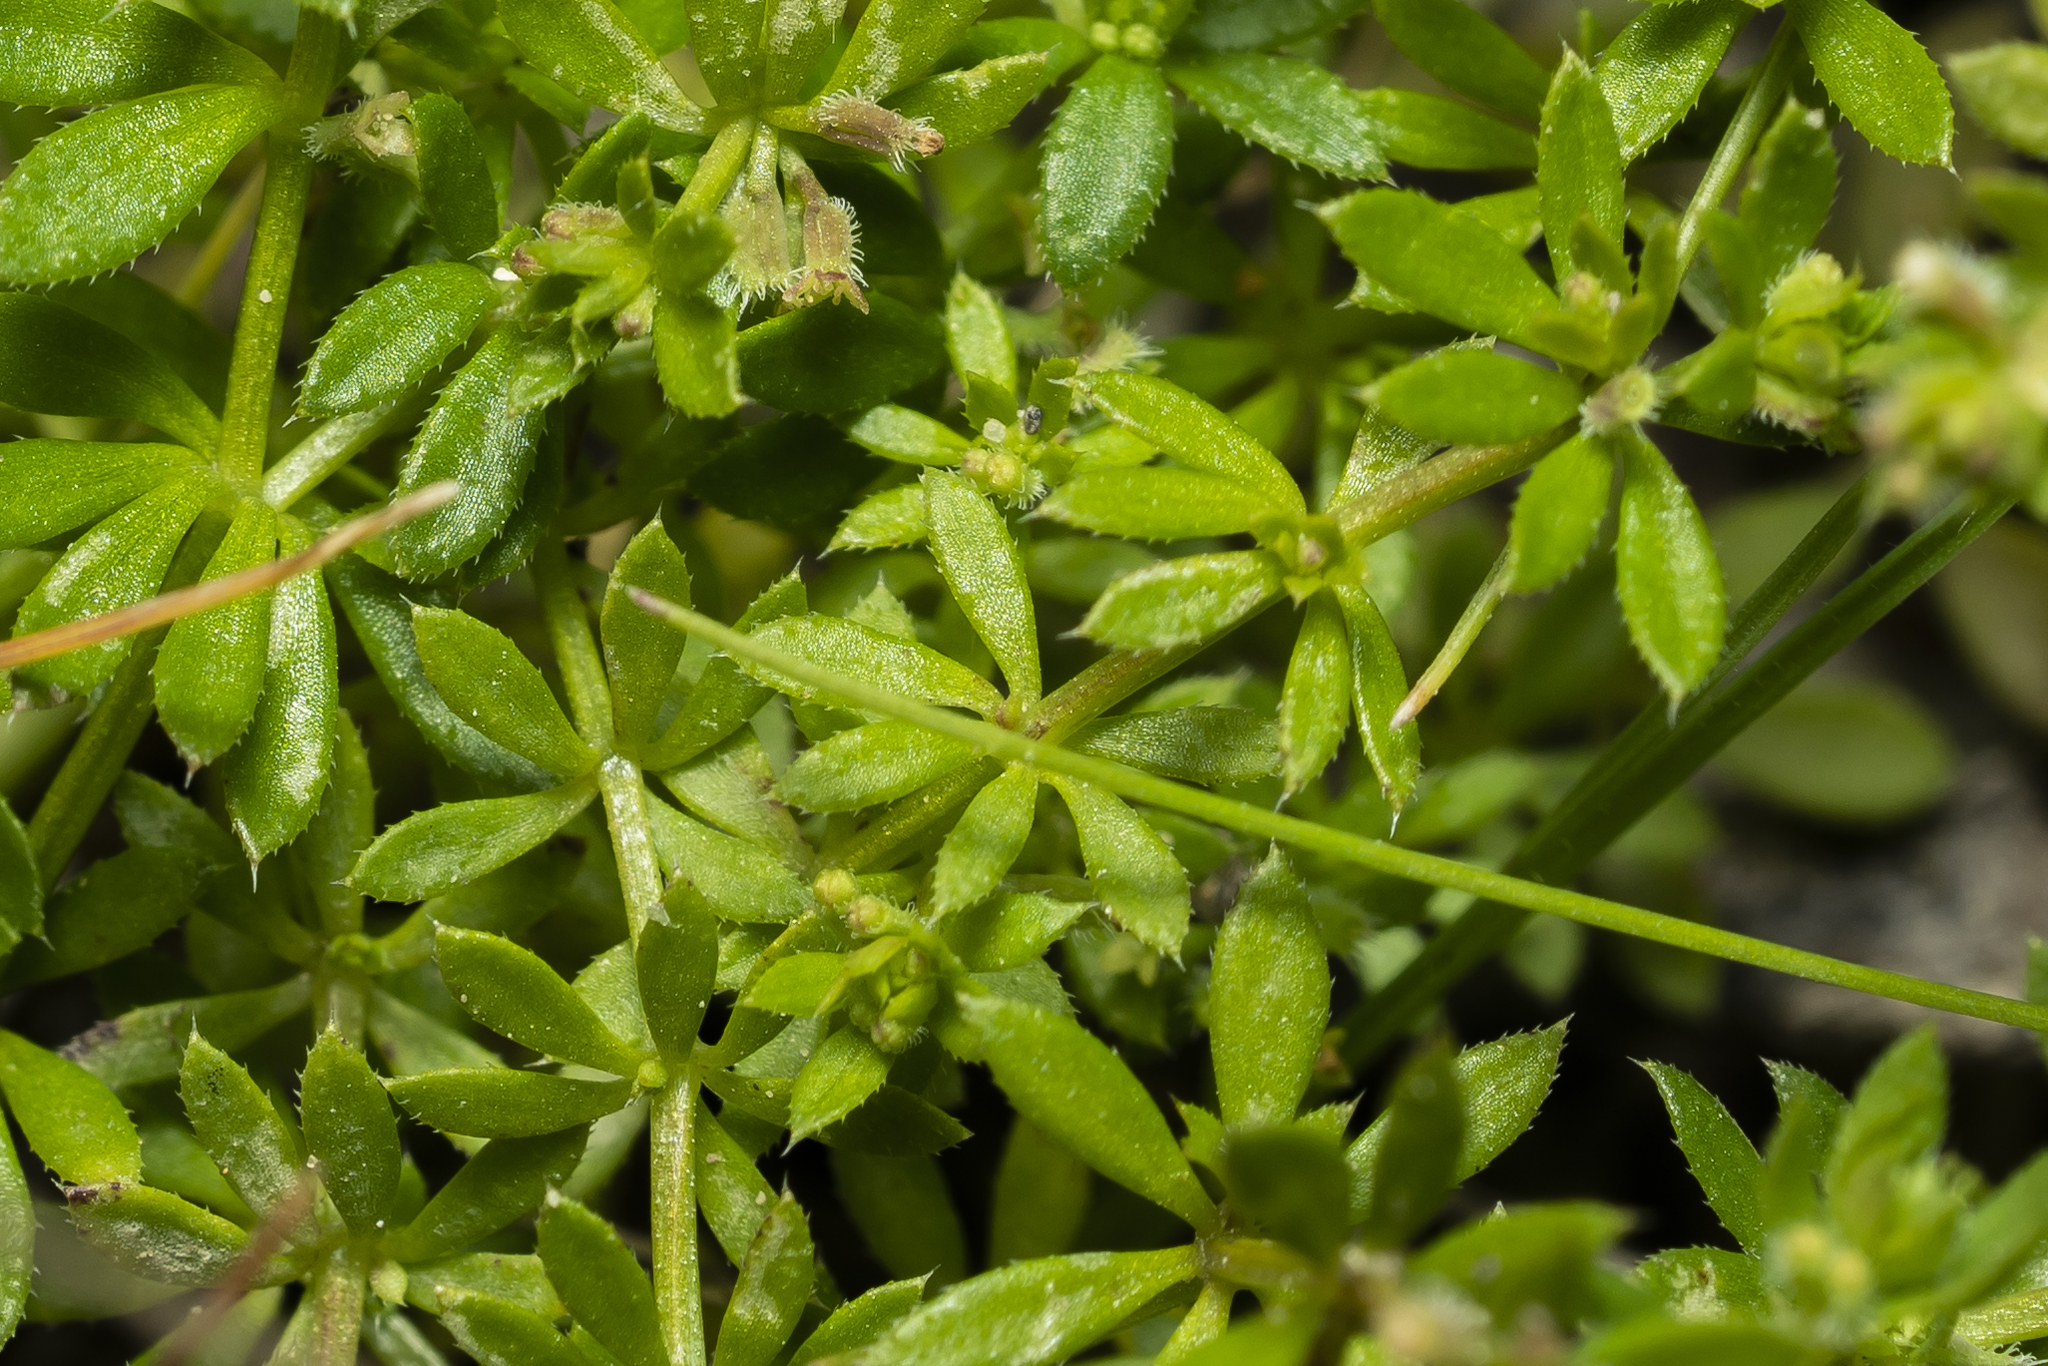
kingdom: Plantae
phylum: Tracheophyta
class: Magnoliopsida
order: Gentianales
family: Rubiaceae
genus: Galium
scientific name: Galium murale
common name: Yellow wall bedstraw
